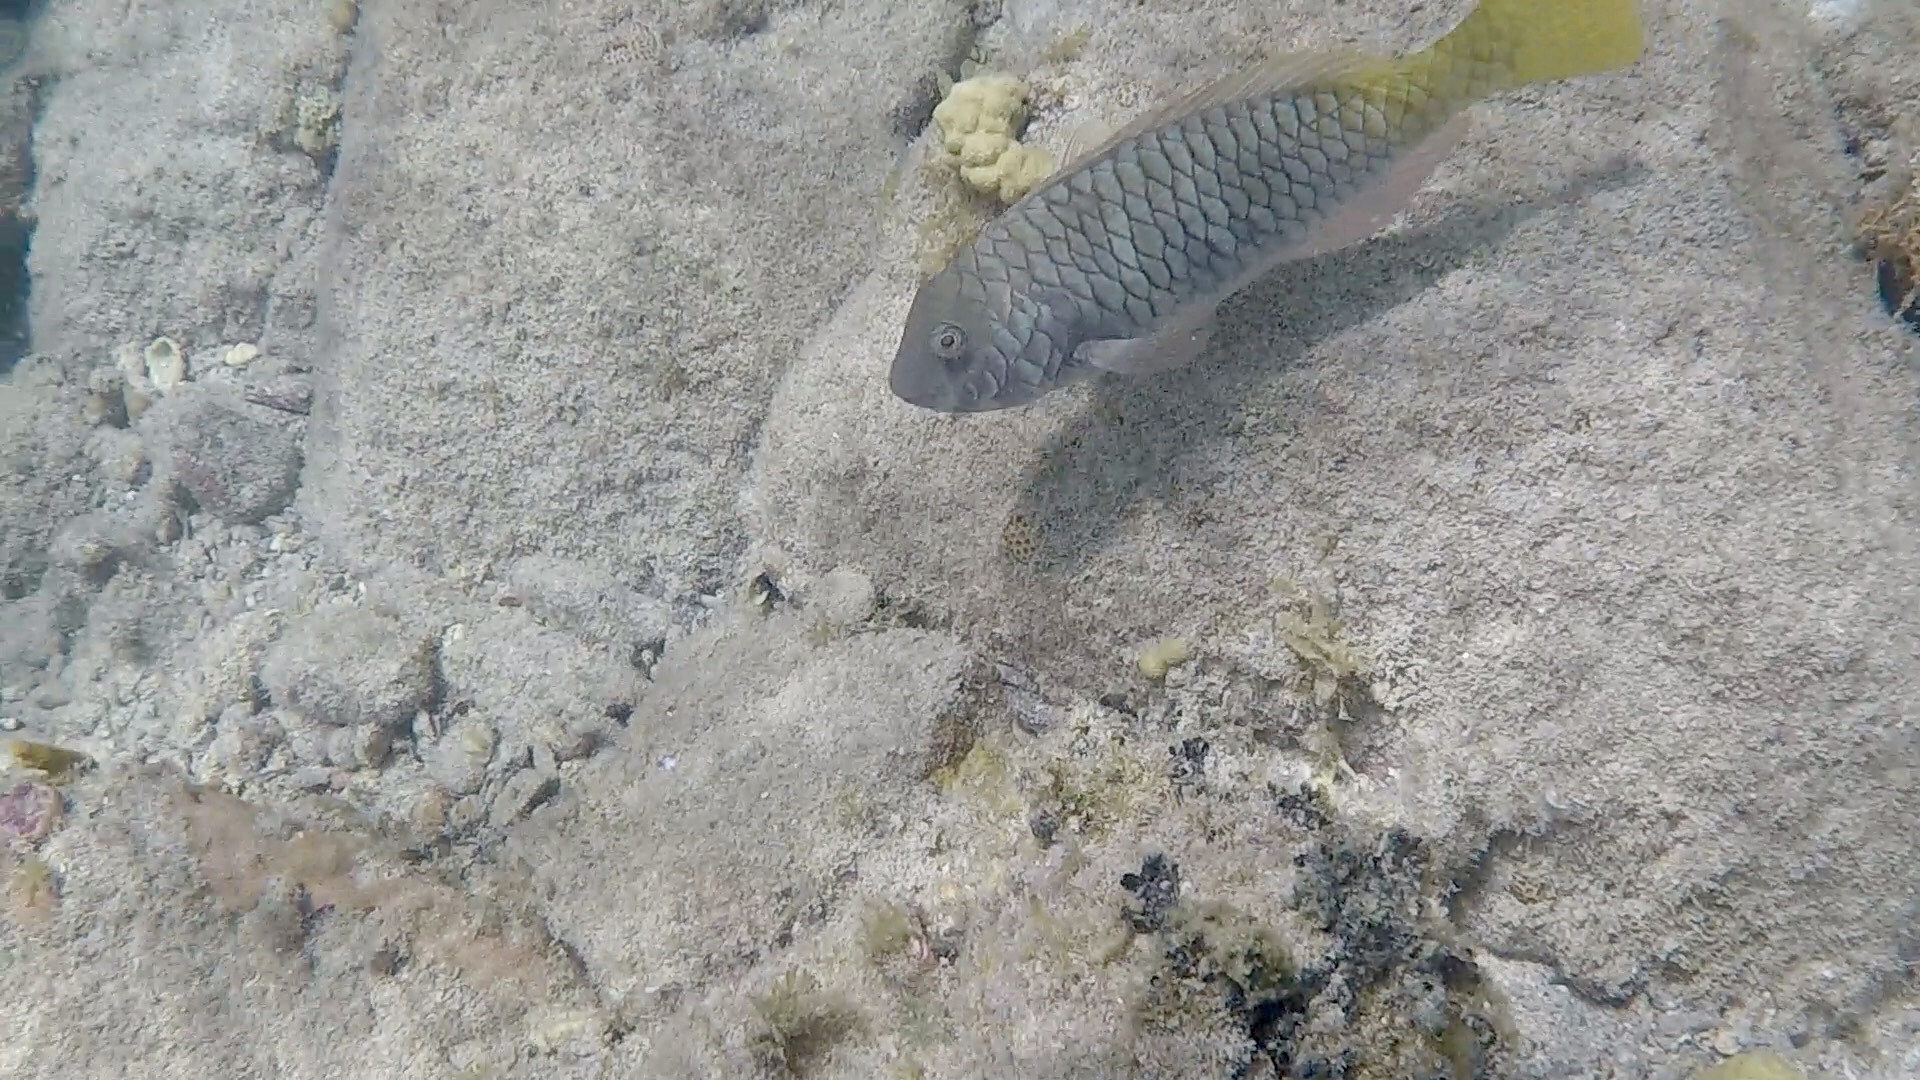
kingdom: Animalia
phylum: Chordata
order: Perciformes
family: Scaridae
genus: Sparisoma
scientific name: Sparisoma rubripinne
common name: Redfin parrotfish
